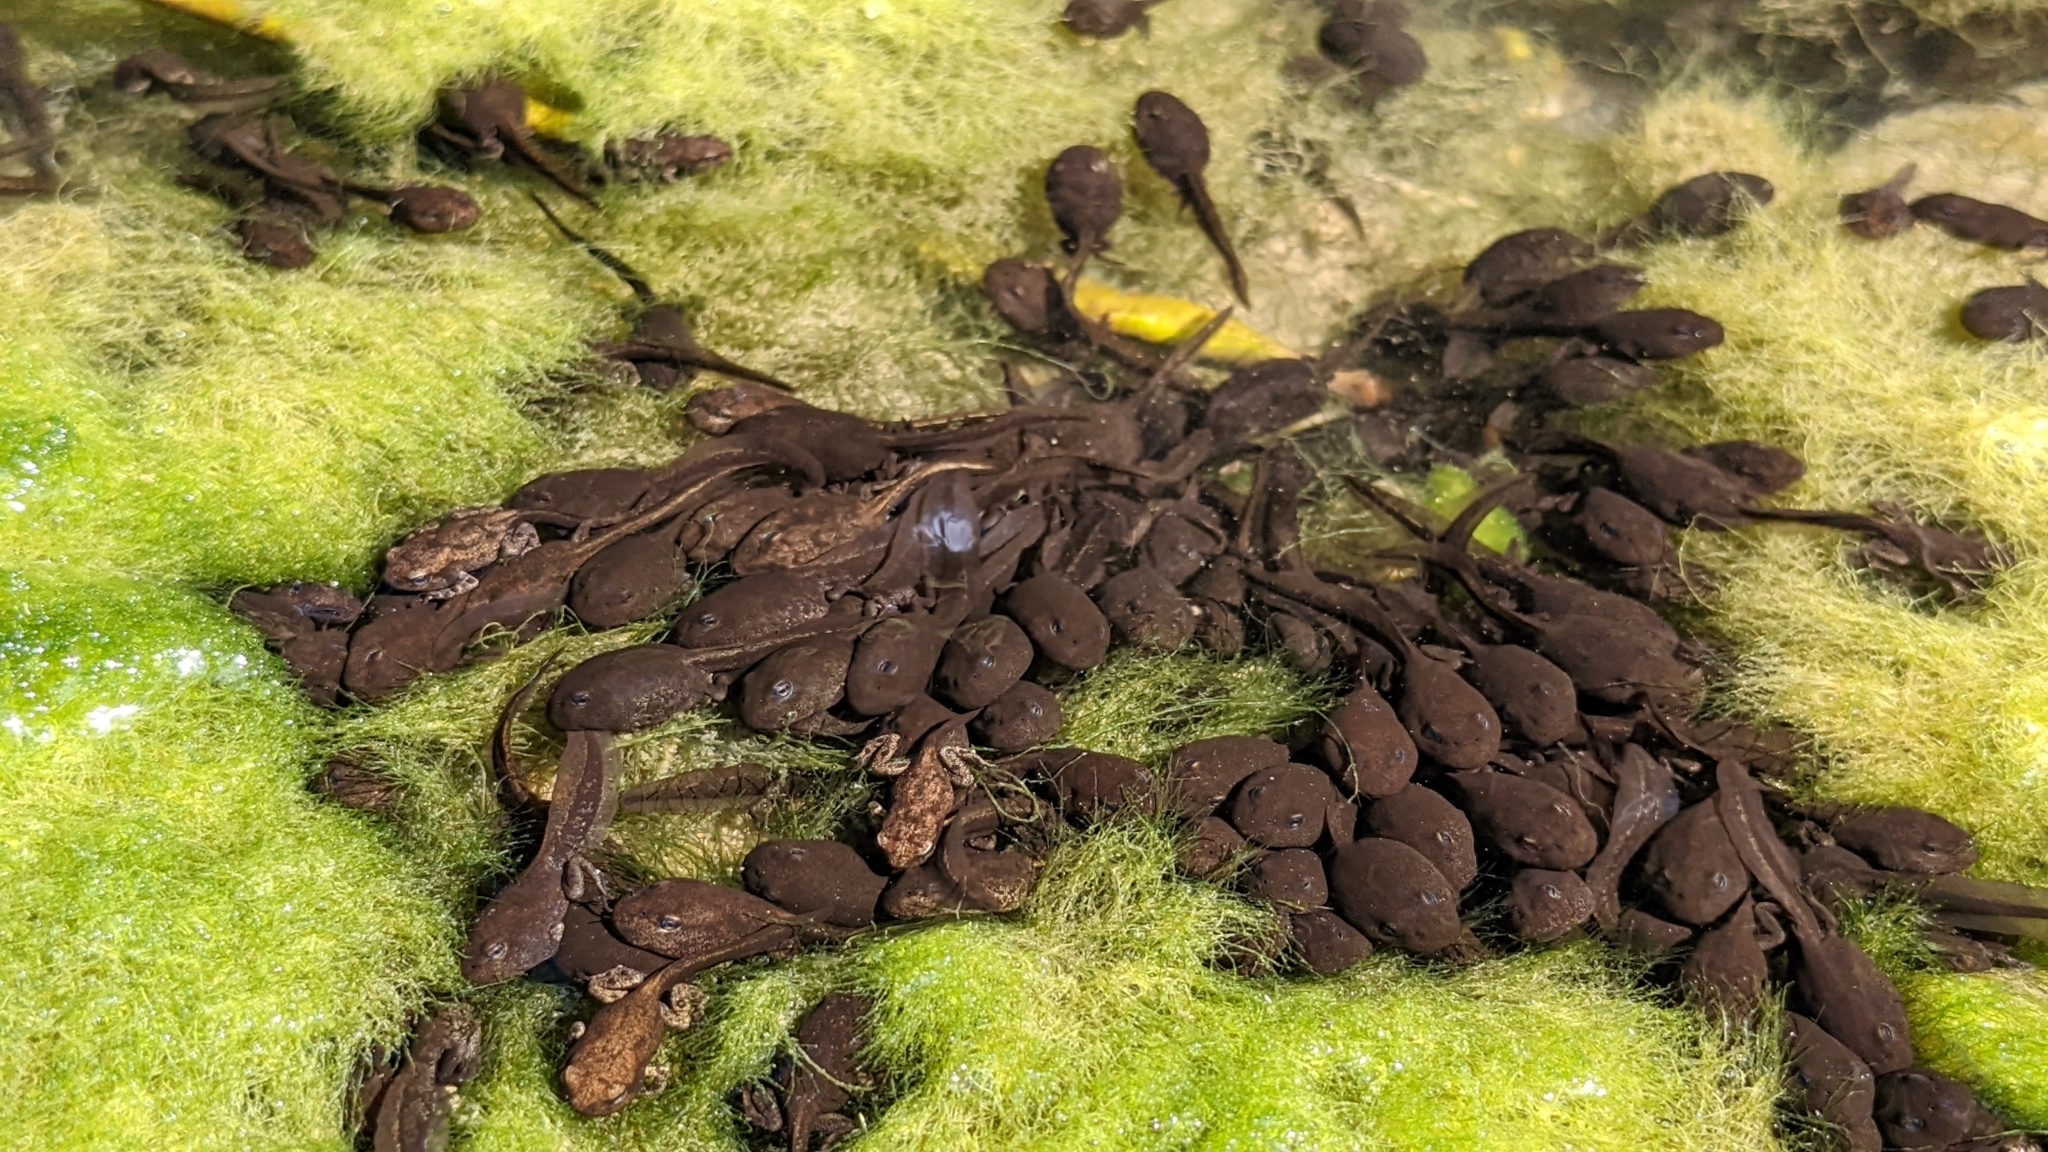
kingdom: Animalia
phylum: Chordata
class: Amphibia
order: Anura
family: Bufonidae
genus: Bufo
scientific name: Bufo bufo
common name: Common toad
